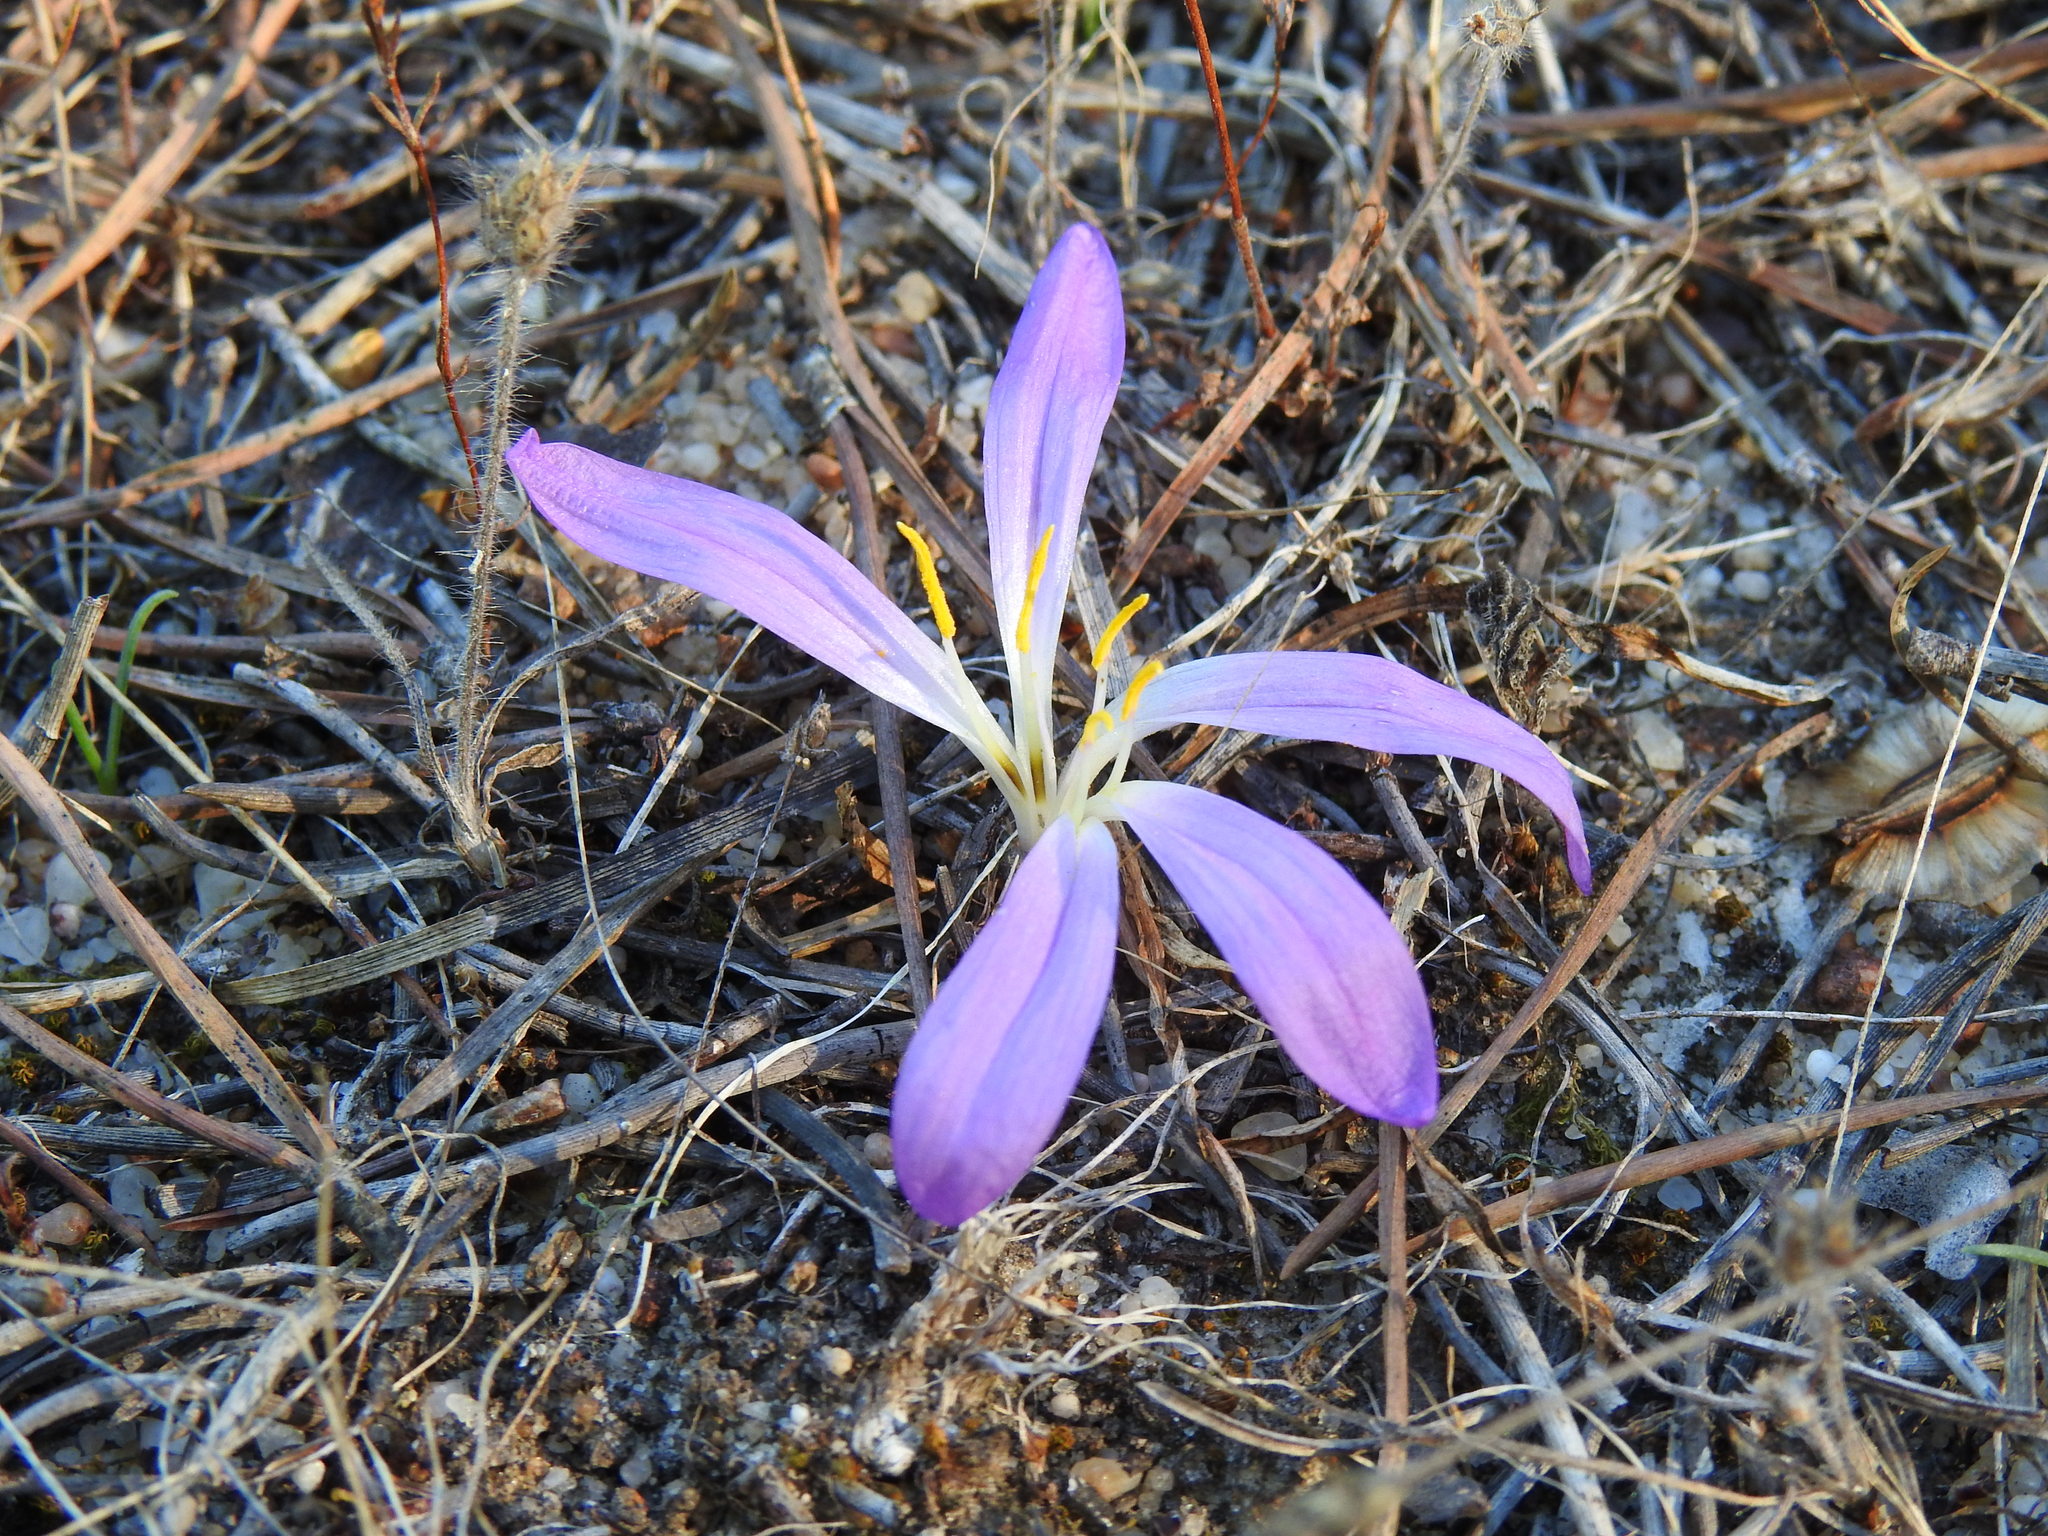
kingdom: Plantae
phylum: Tracheophyta
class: Liliopsida
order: Liliales
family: Colchicaceae
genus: Colchicum
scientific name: Colchicum filifolium
